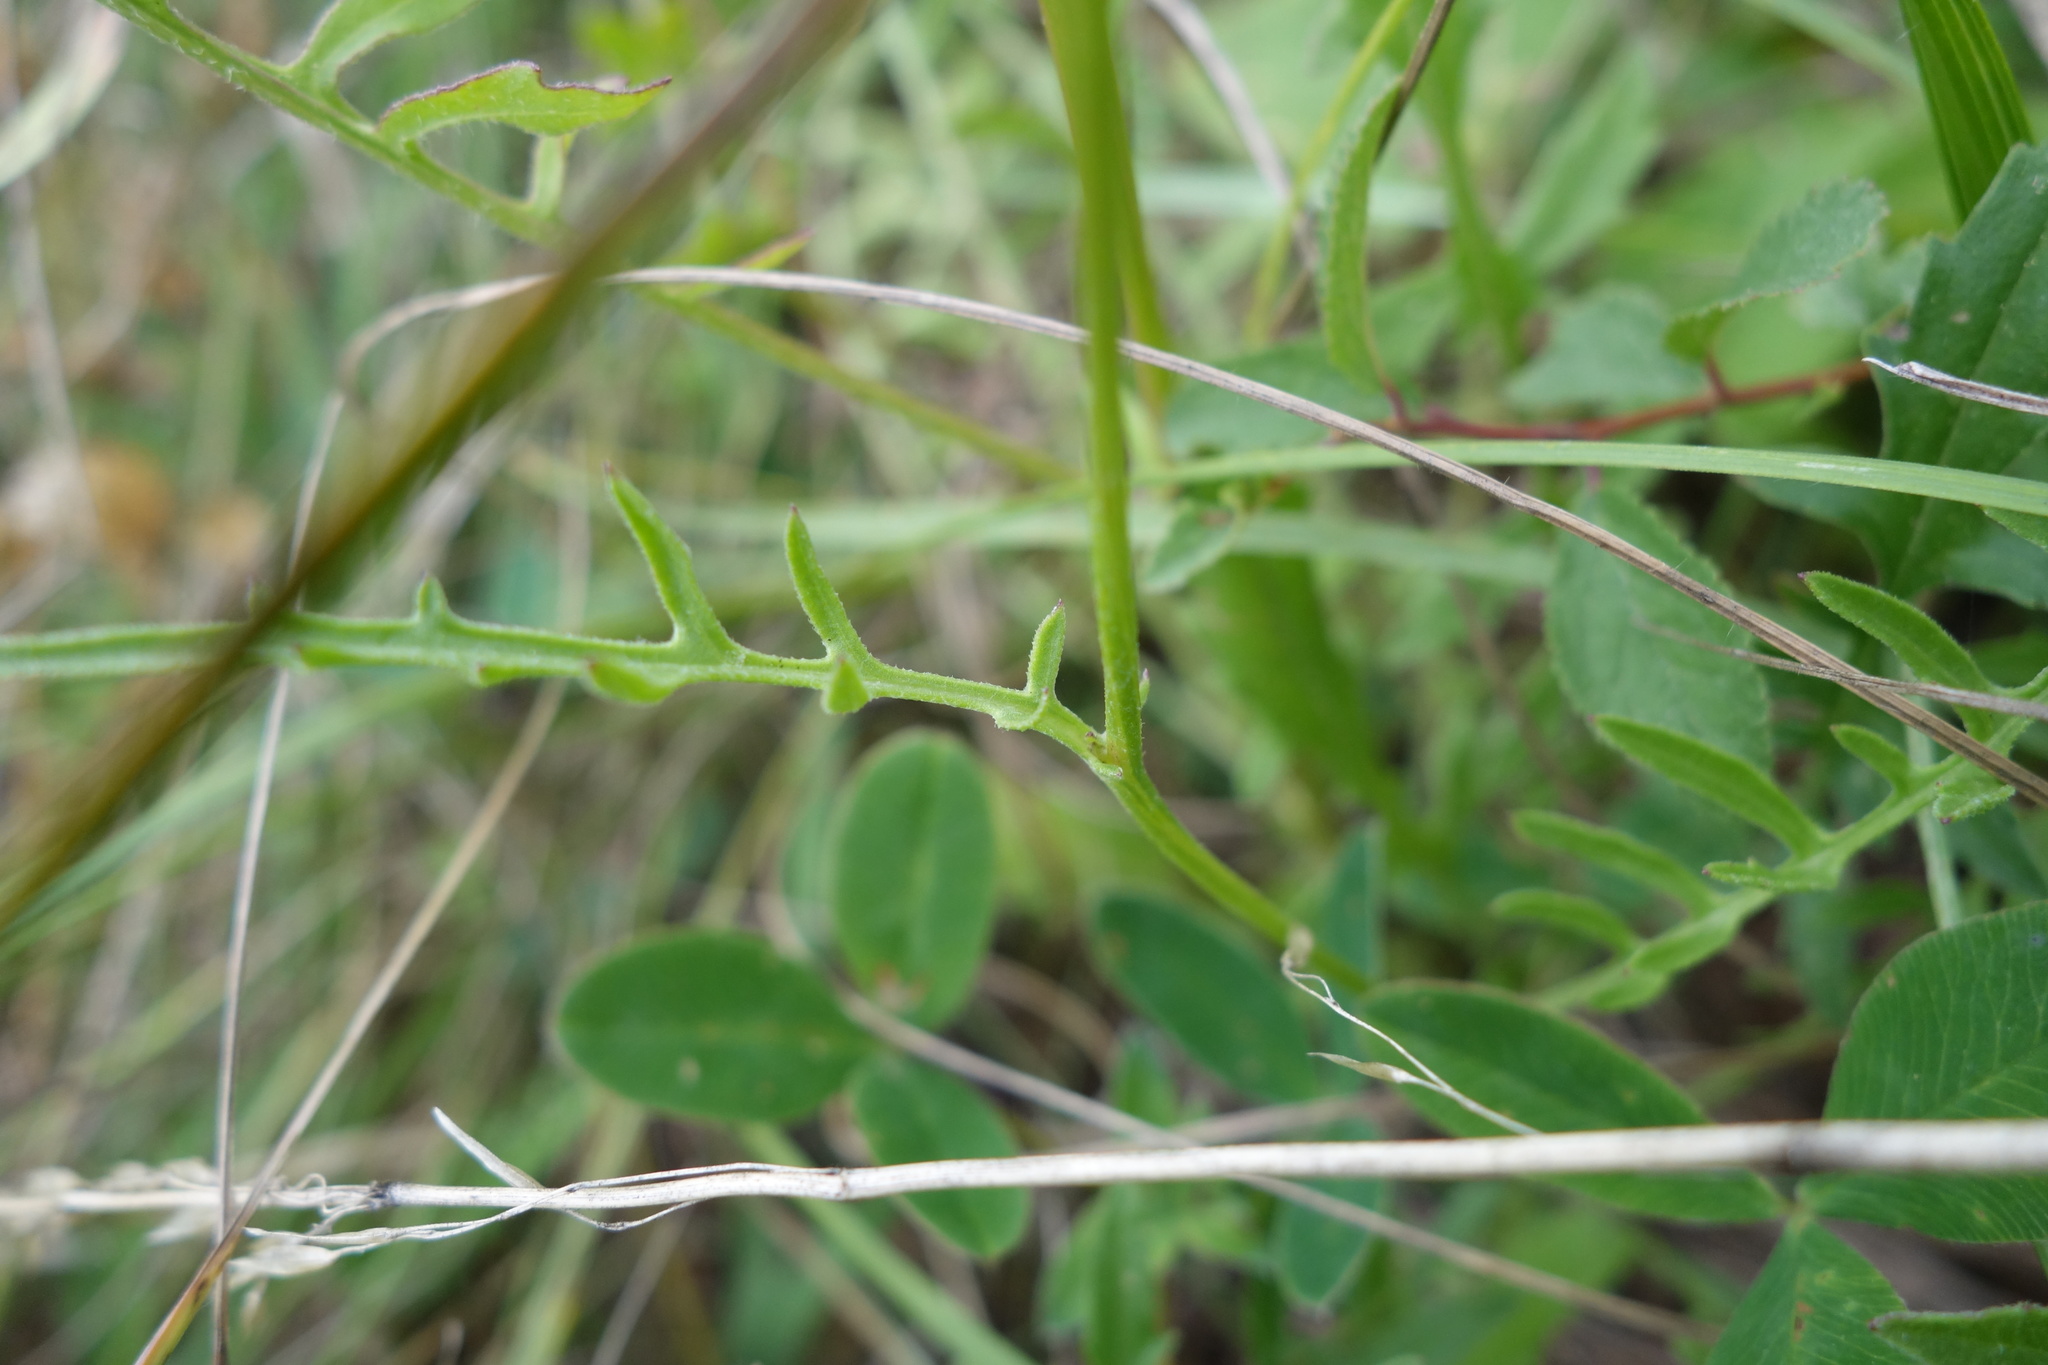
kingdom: Plantae
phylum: Tracheophyta
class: Magnoliopsida
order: Asterales
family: Asteraceae
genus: Centaurea
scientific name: Centaurea scabiosa
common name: Greater knapweed
